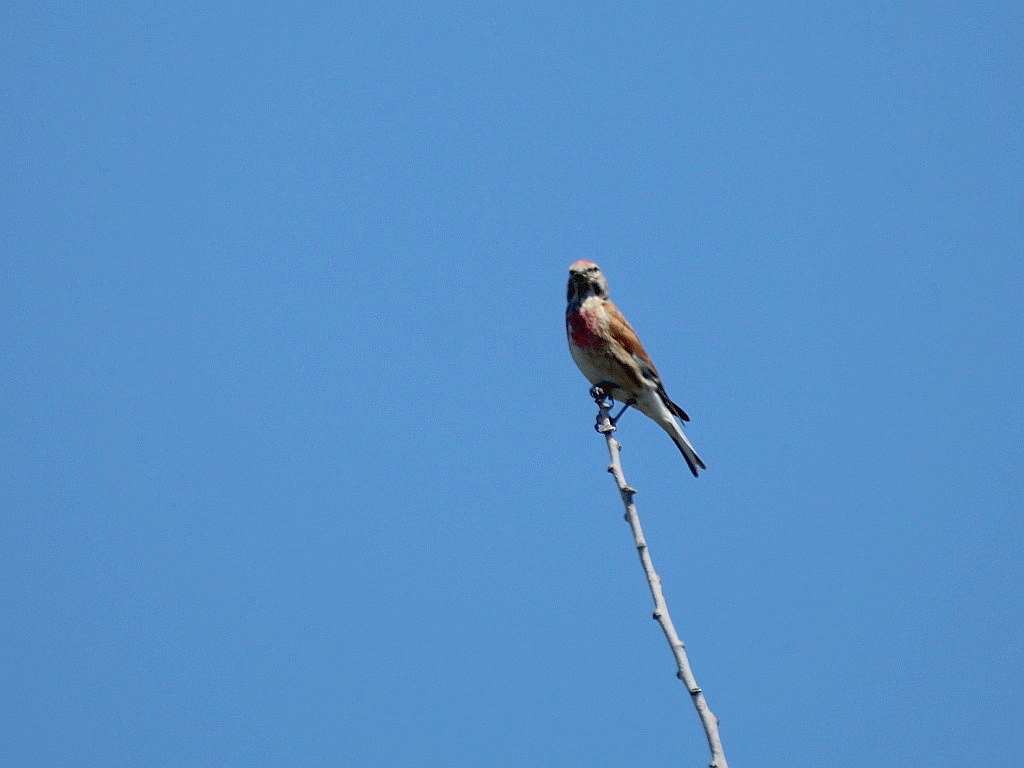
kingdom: Animalia
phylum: Chordata
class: Aves
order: Passeriformes
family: Fringillidae
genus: Linaria
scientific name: Linaria cannabina
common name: Common linnet
